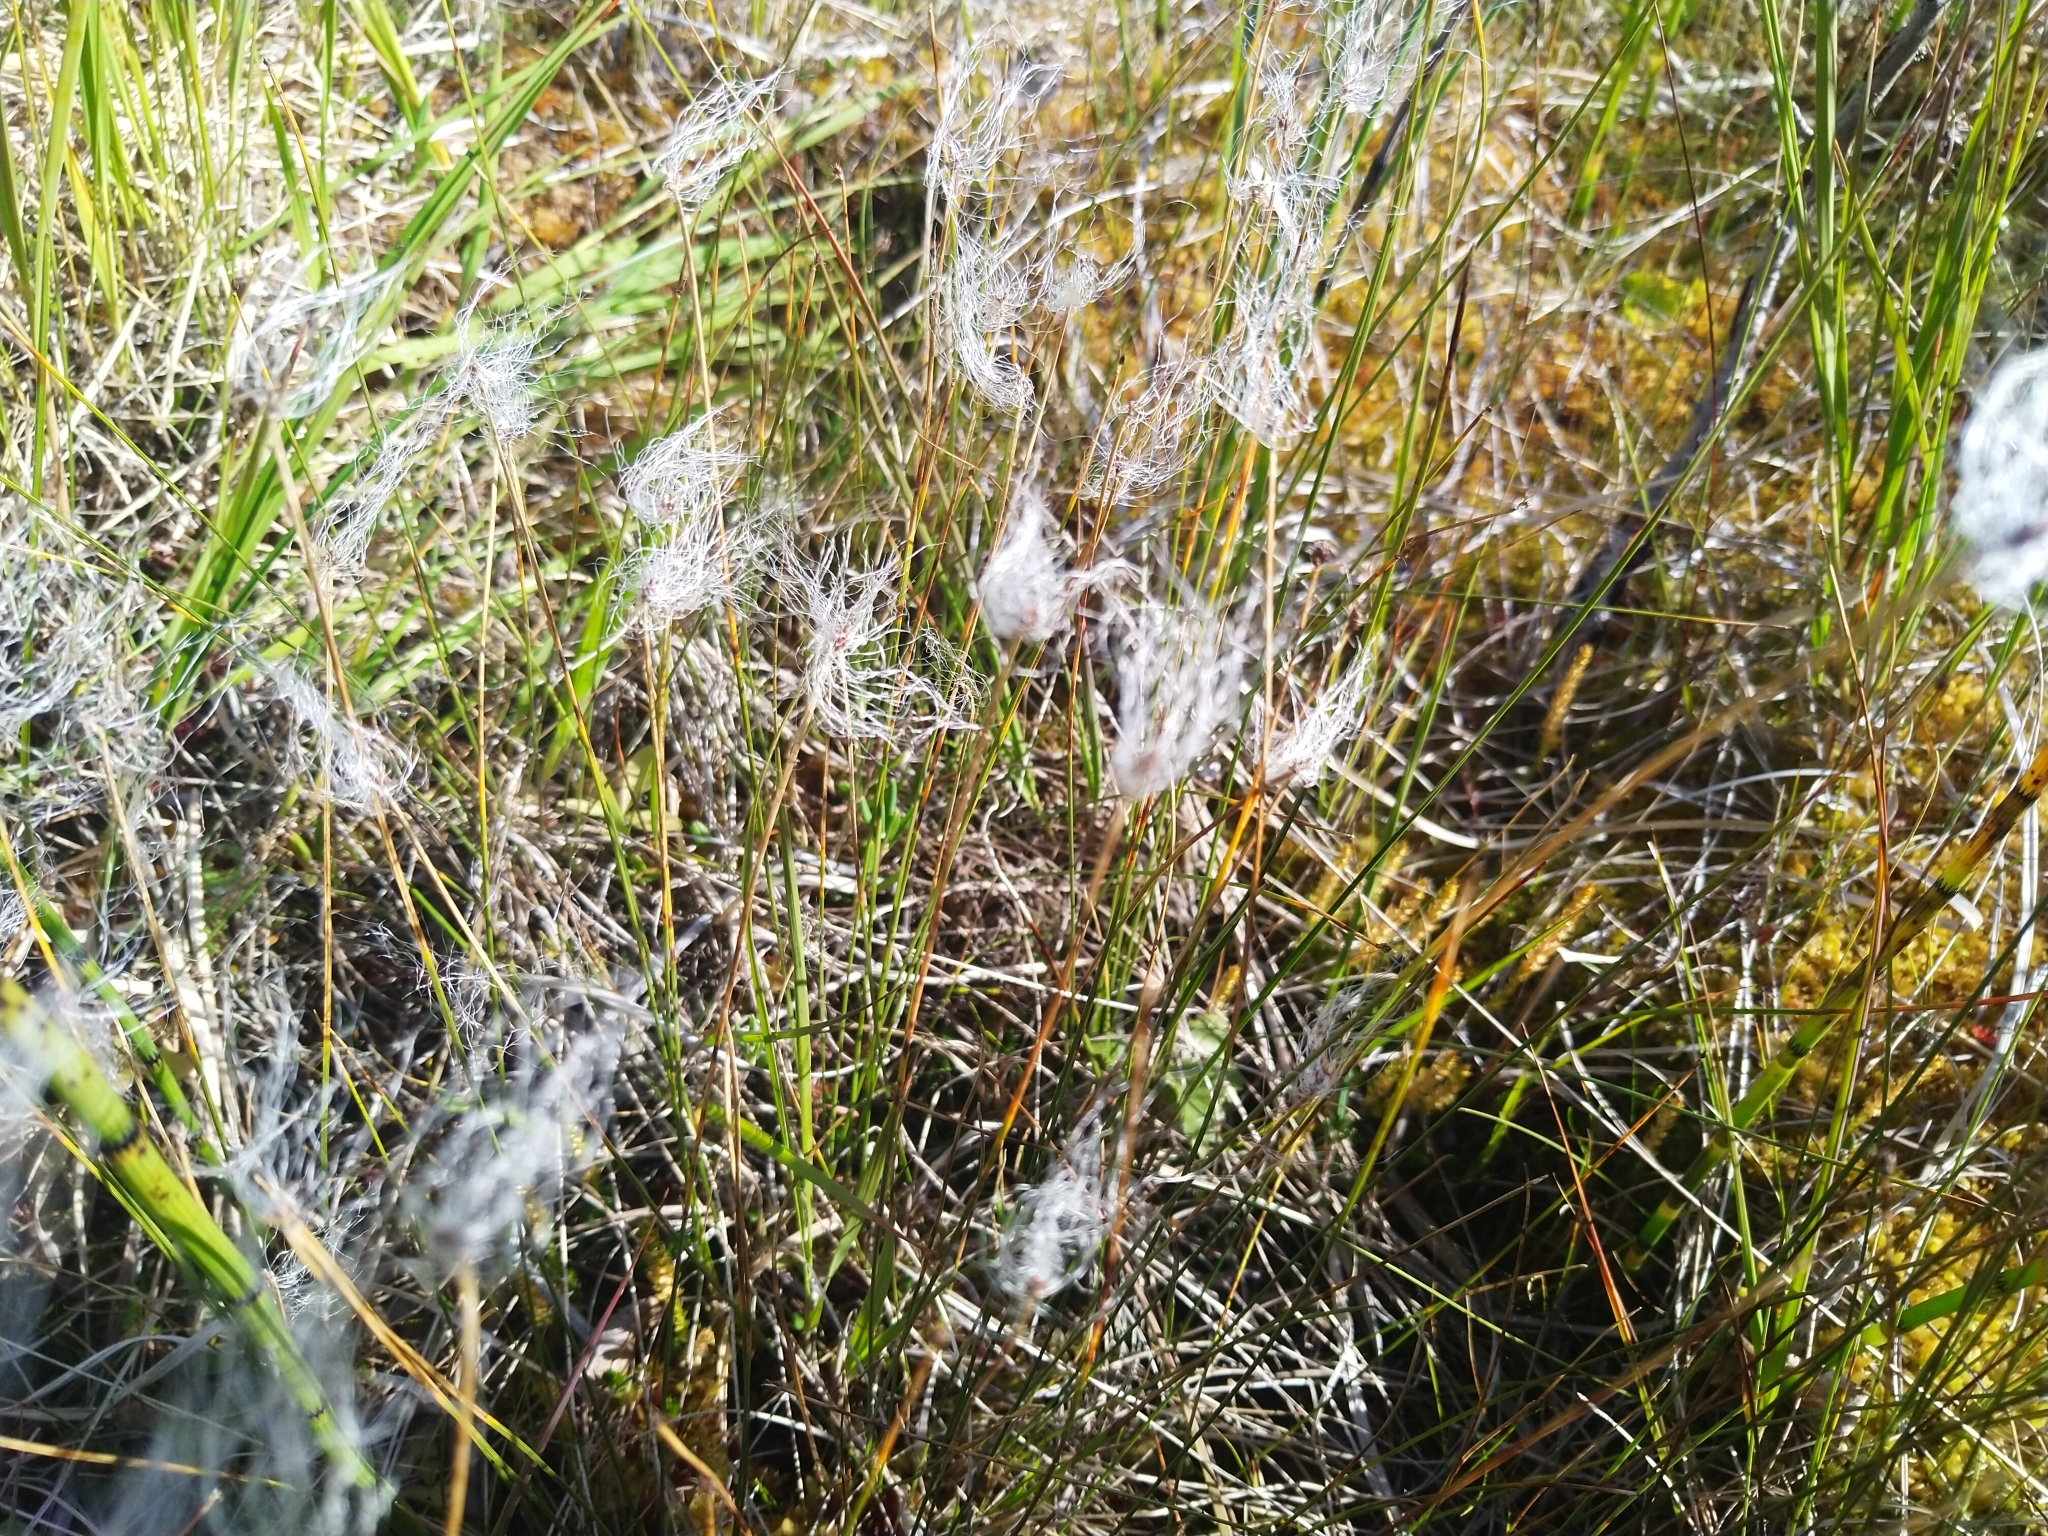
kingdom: Plantae
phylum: Tracheophyta
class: Liliopsida
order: Poales
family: Cyperaceae
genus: Trichophorum
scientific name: Trichophorum alpinum
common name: Alpine bulrush
